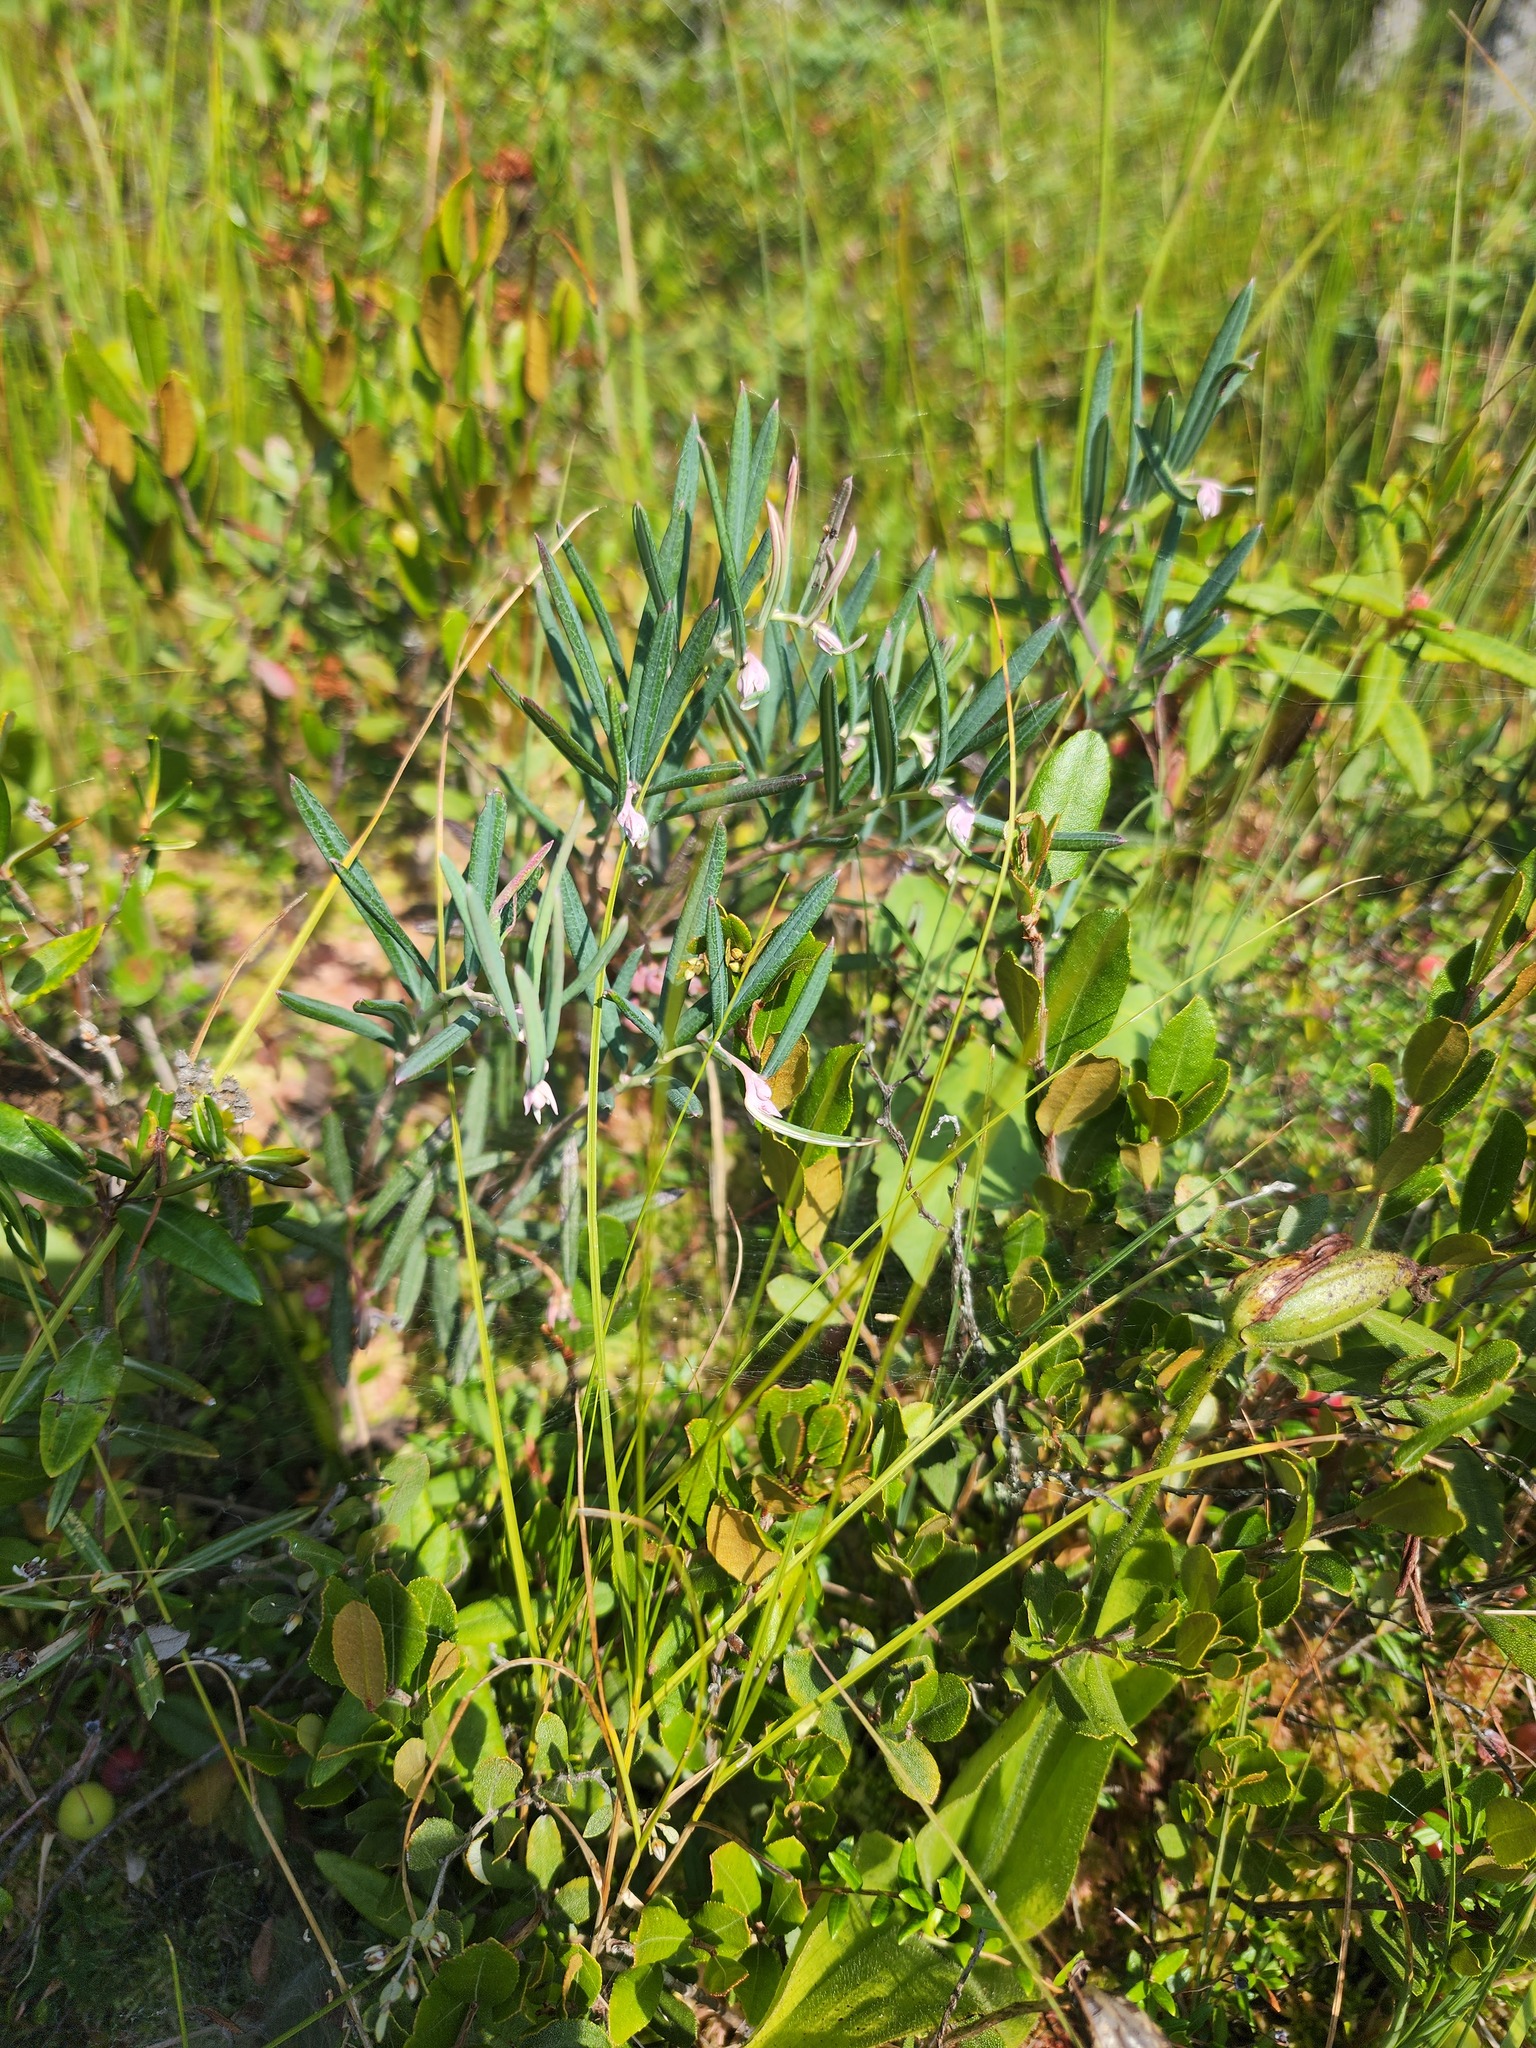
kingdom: Plantae
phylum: Tracheophyta
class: Magnoliopsida
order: Ericales
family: Ericaceae
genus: Andromeda
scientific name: Andromeda polifolia
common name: Bog-rosemary
